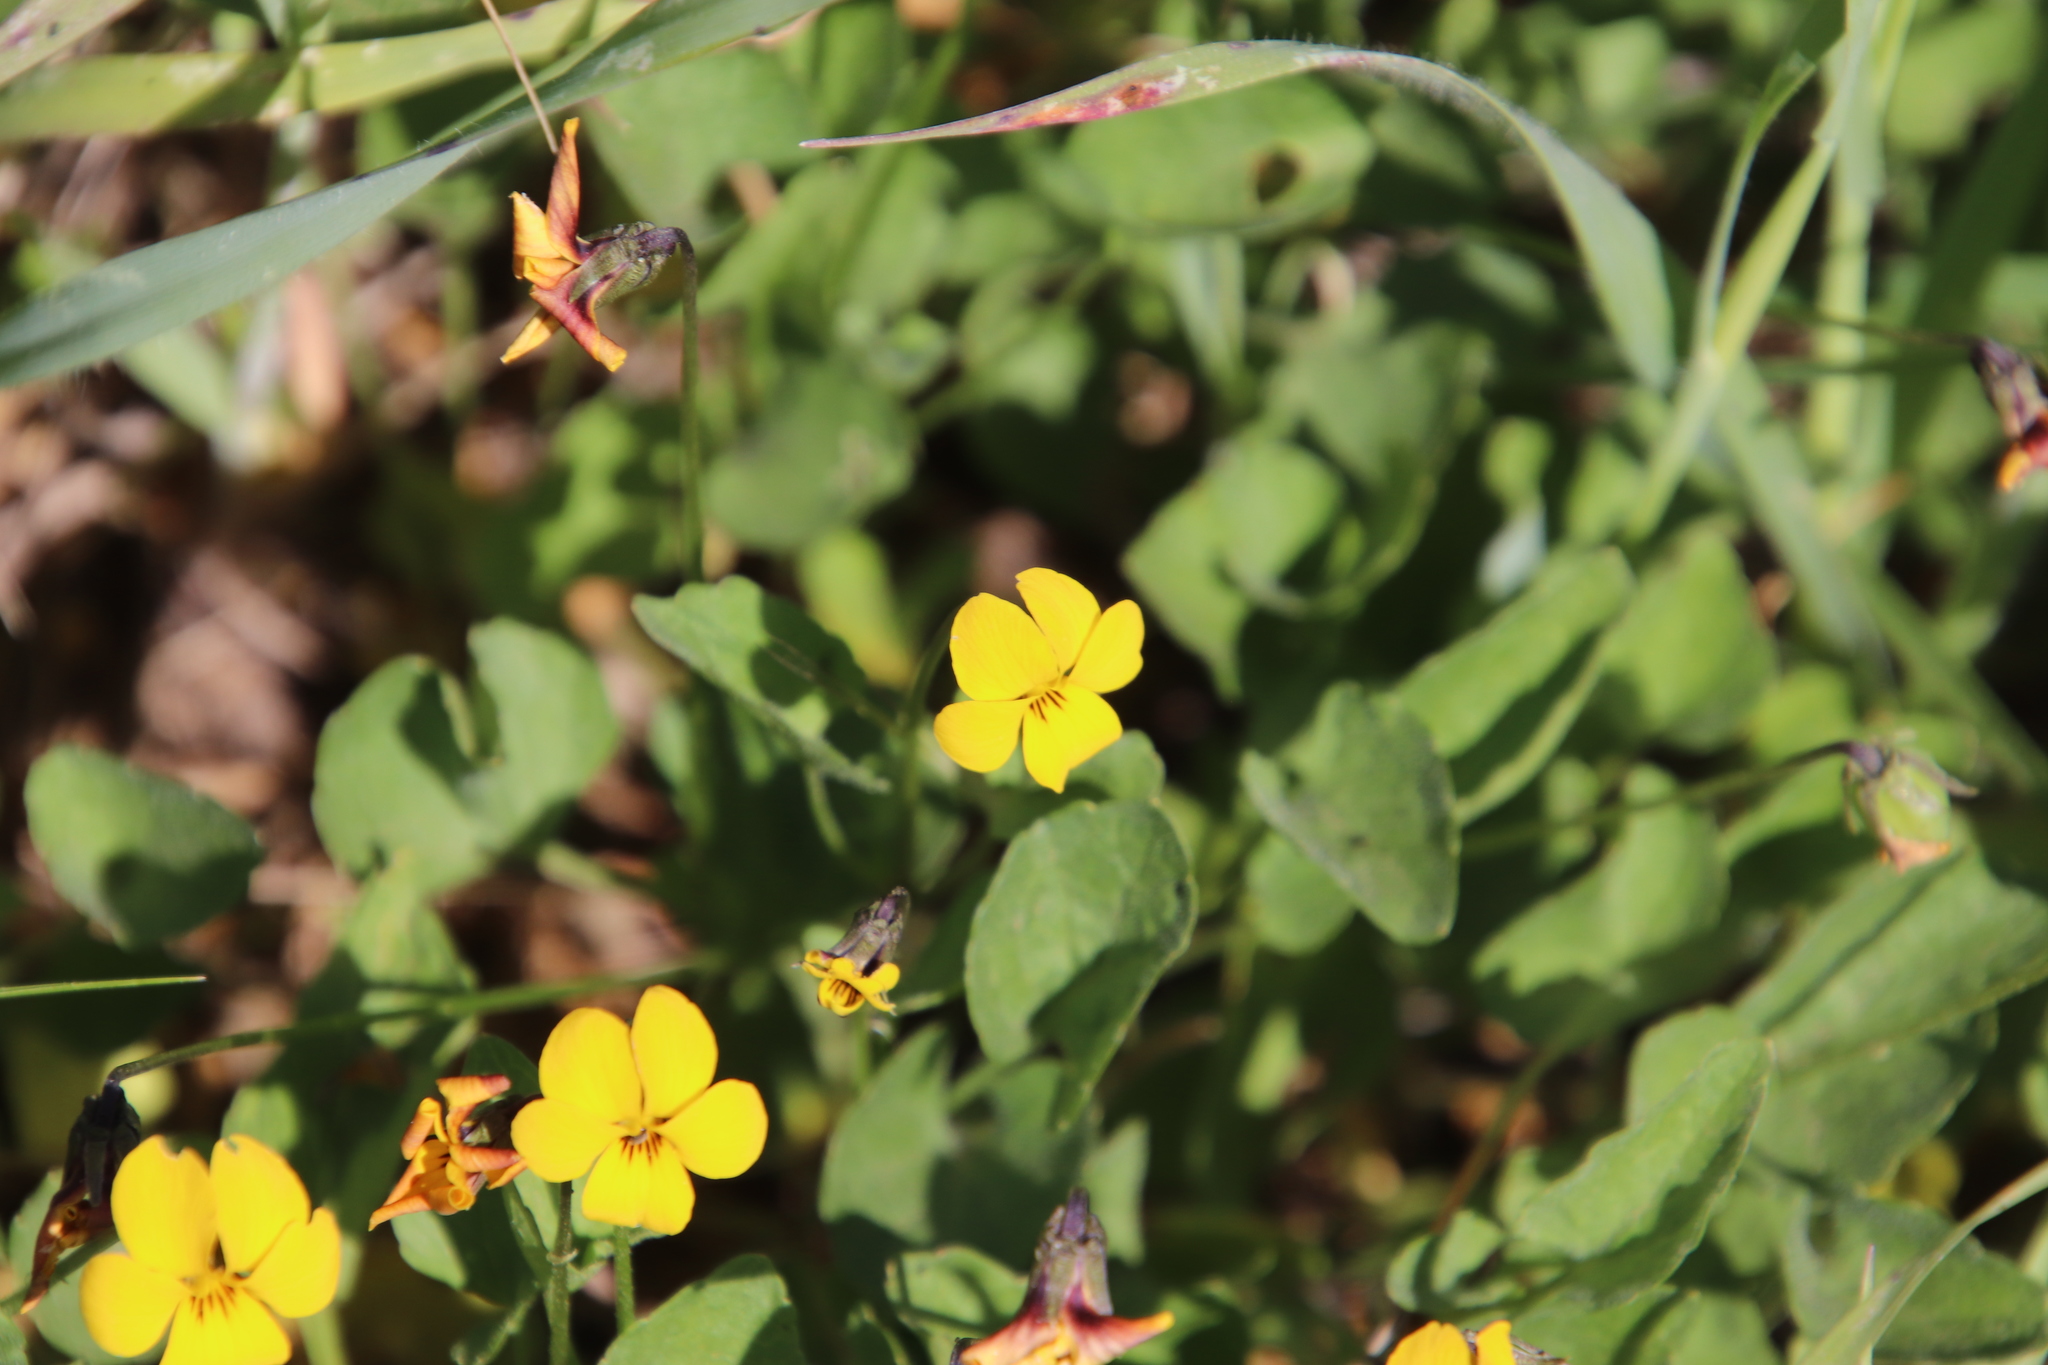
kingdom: Plantae
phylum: Tracheophyta
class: Magnoliopsida
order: Malpighiales
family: Violaceae
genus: Viola
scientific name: Viola pedunculata
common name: California golden violet
